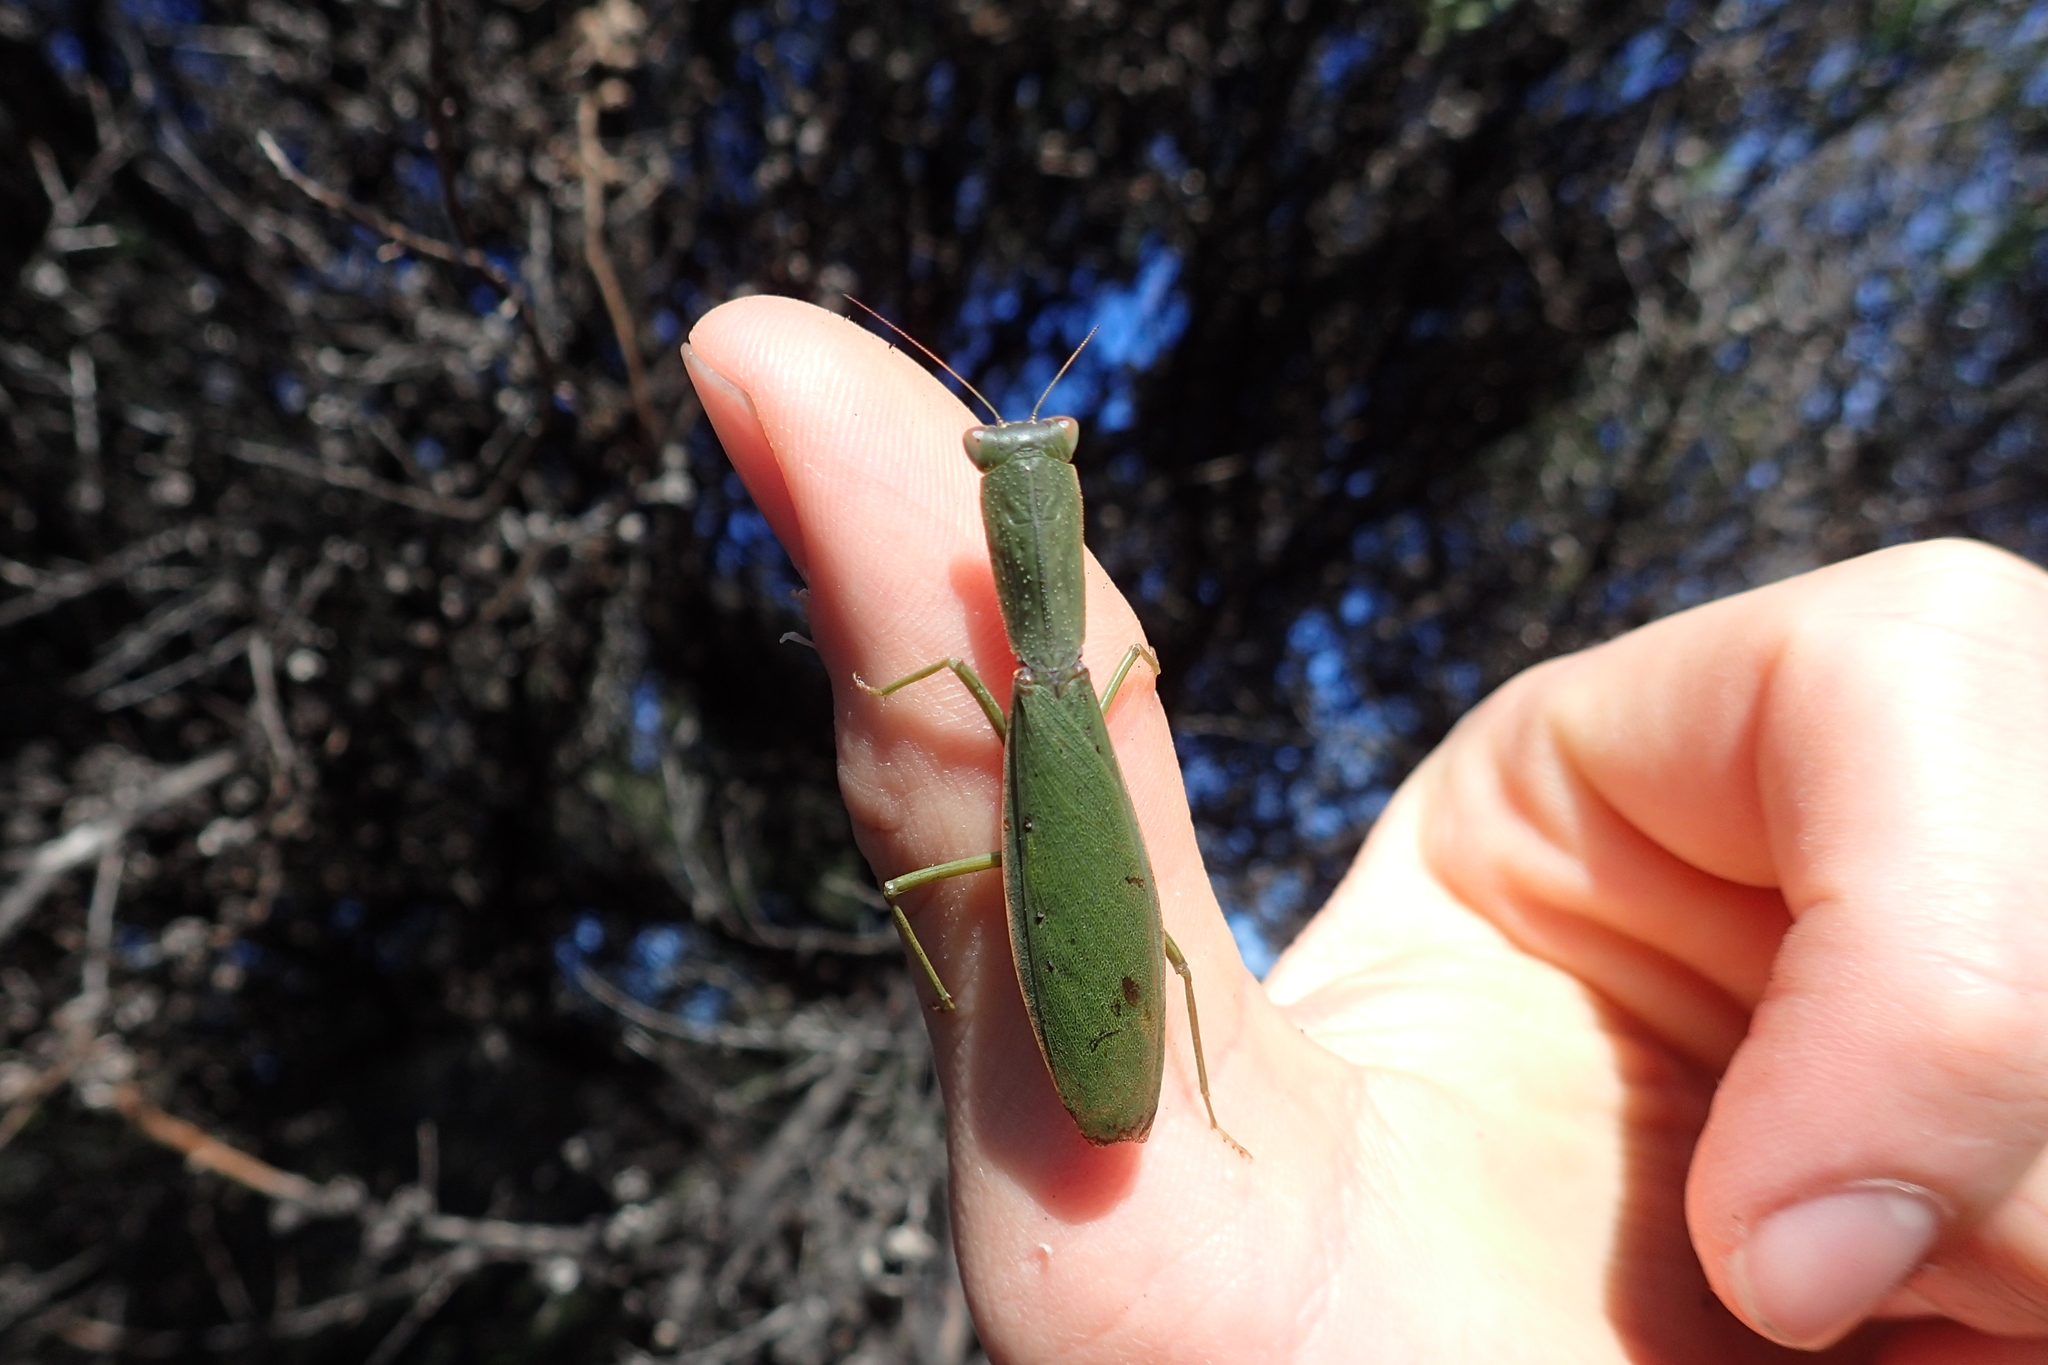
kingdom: Animalia
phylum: Arthropoda
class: Insecta
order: Mantodea
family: Mantidae
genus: Orthodera
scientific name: Orthodera novaezealandiae
